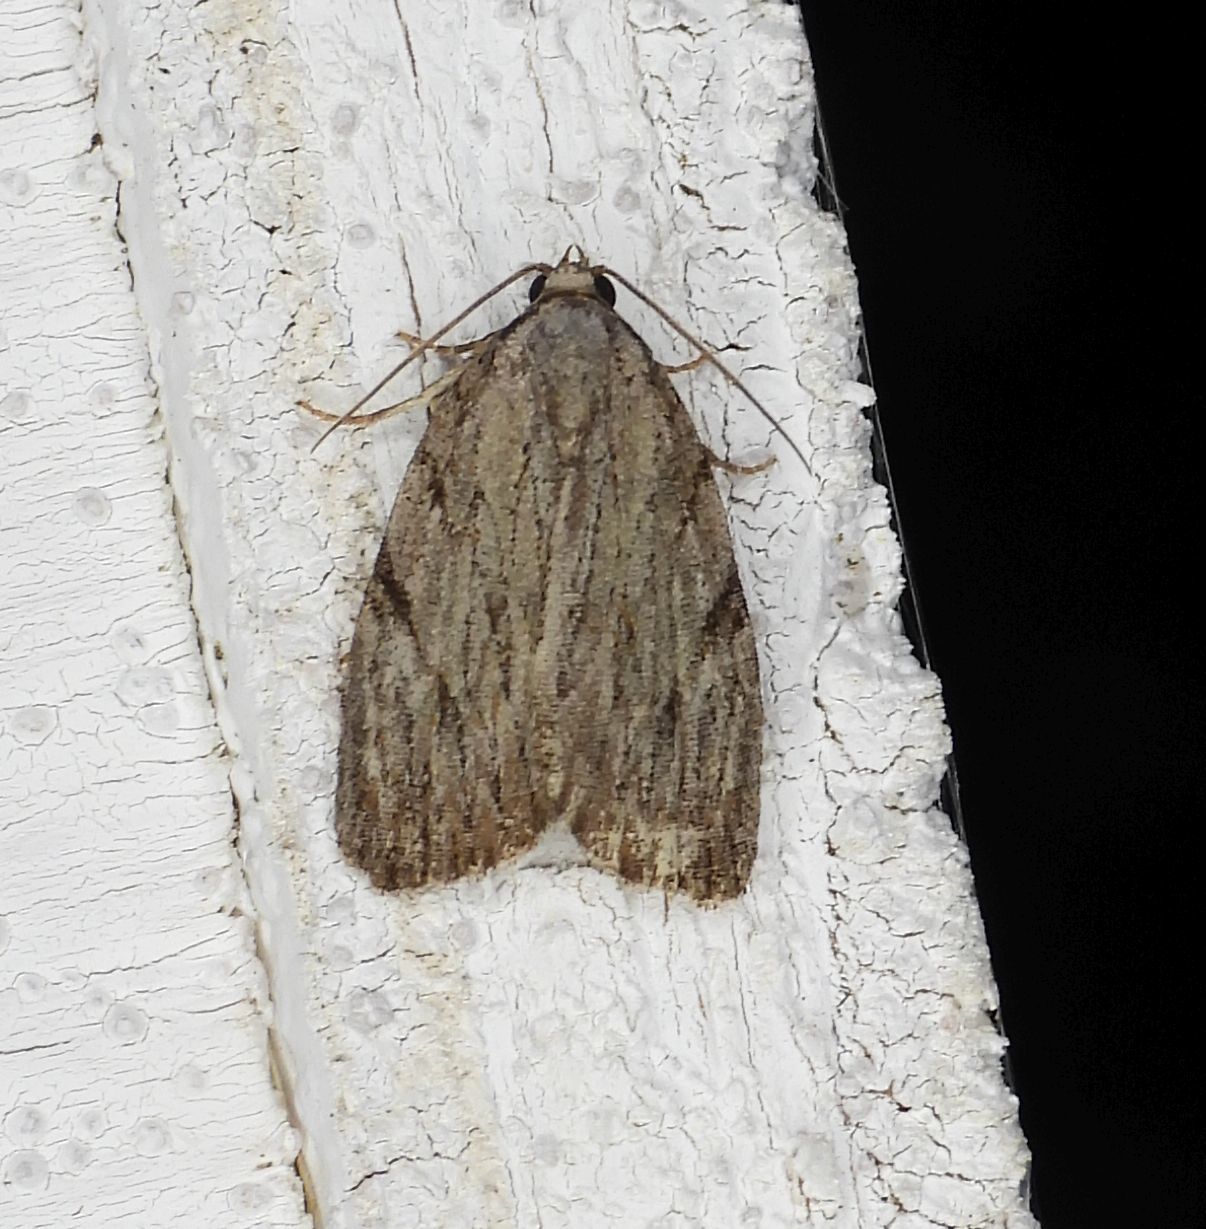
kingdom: Animalia
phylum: Arthropoda
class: Insecta
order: Lepidoptera
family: Noctuidae
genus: Balsa
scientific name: Balsa tristrigella
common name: Three-lined balsa moth
